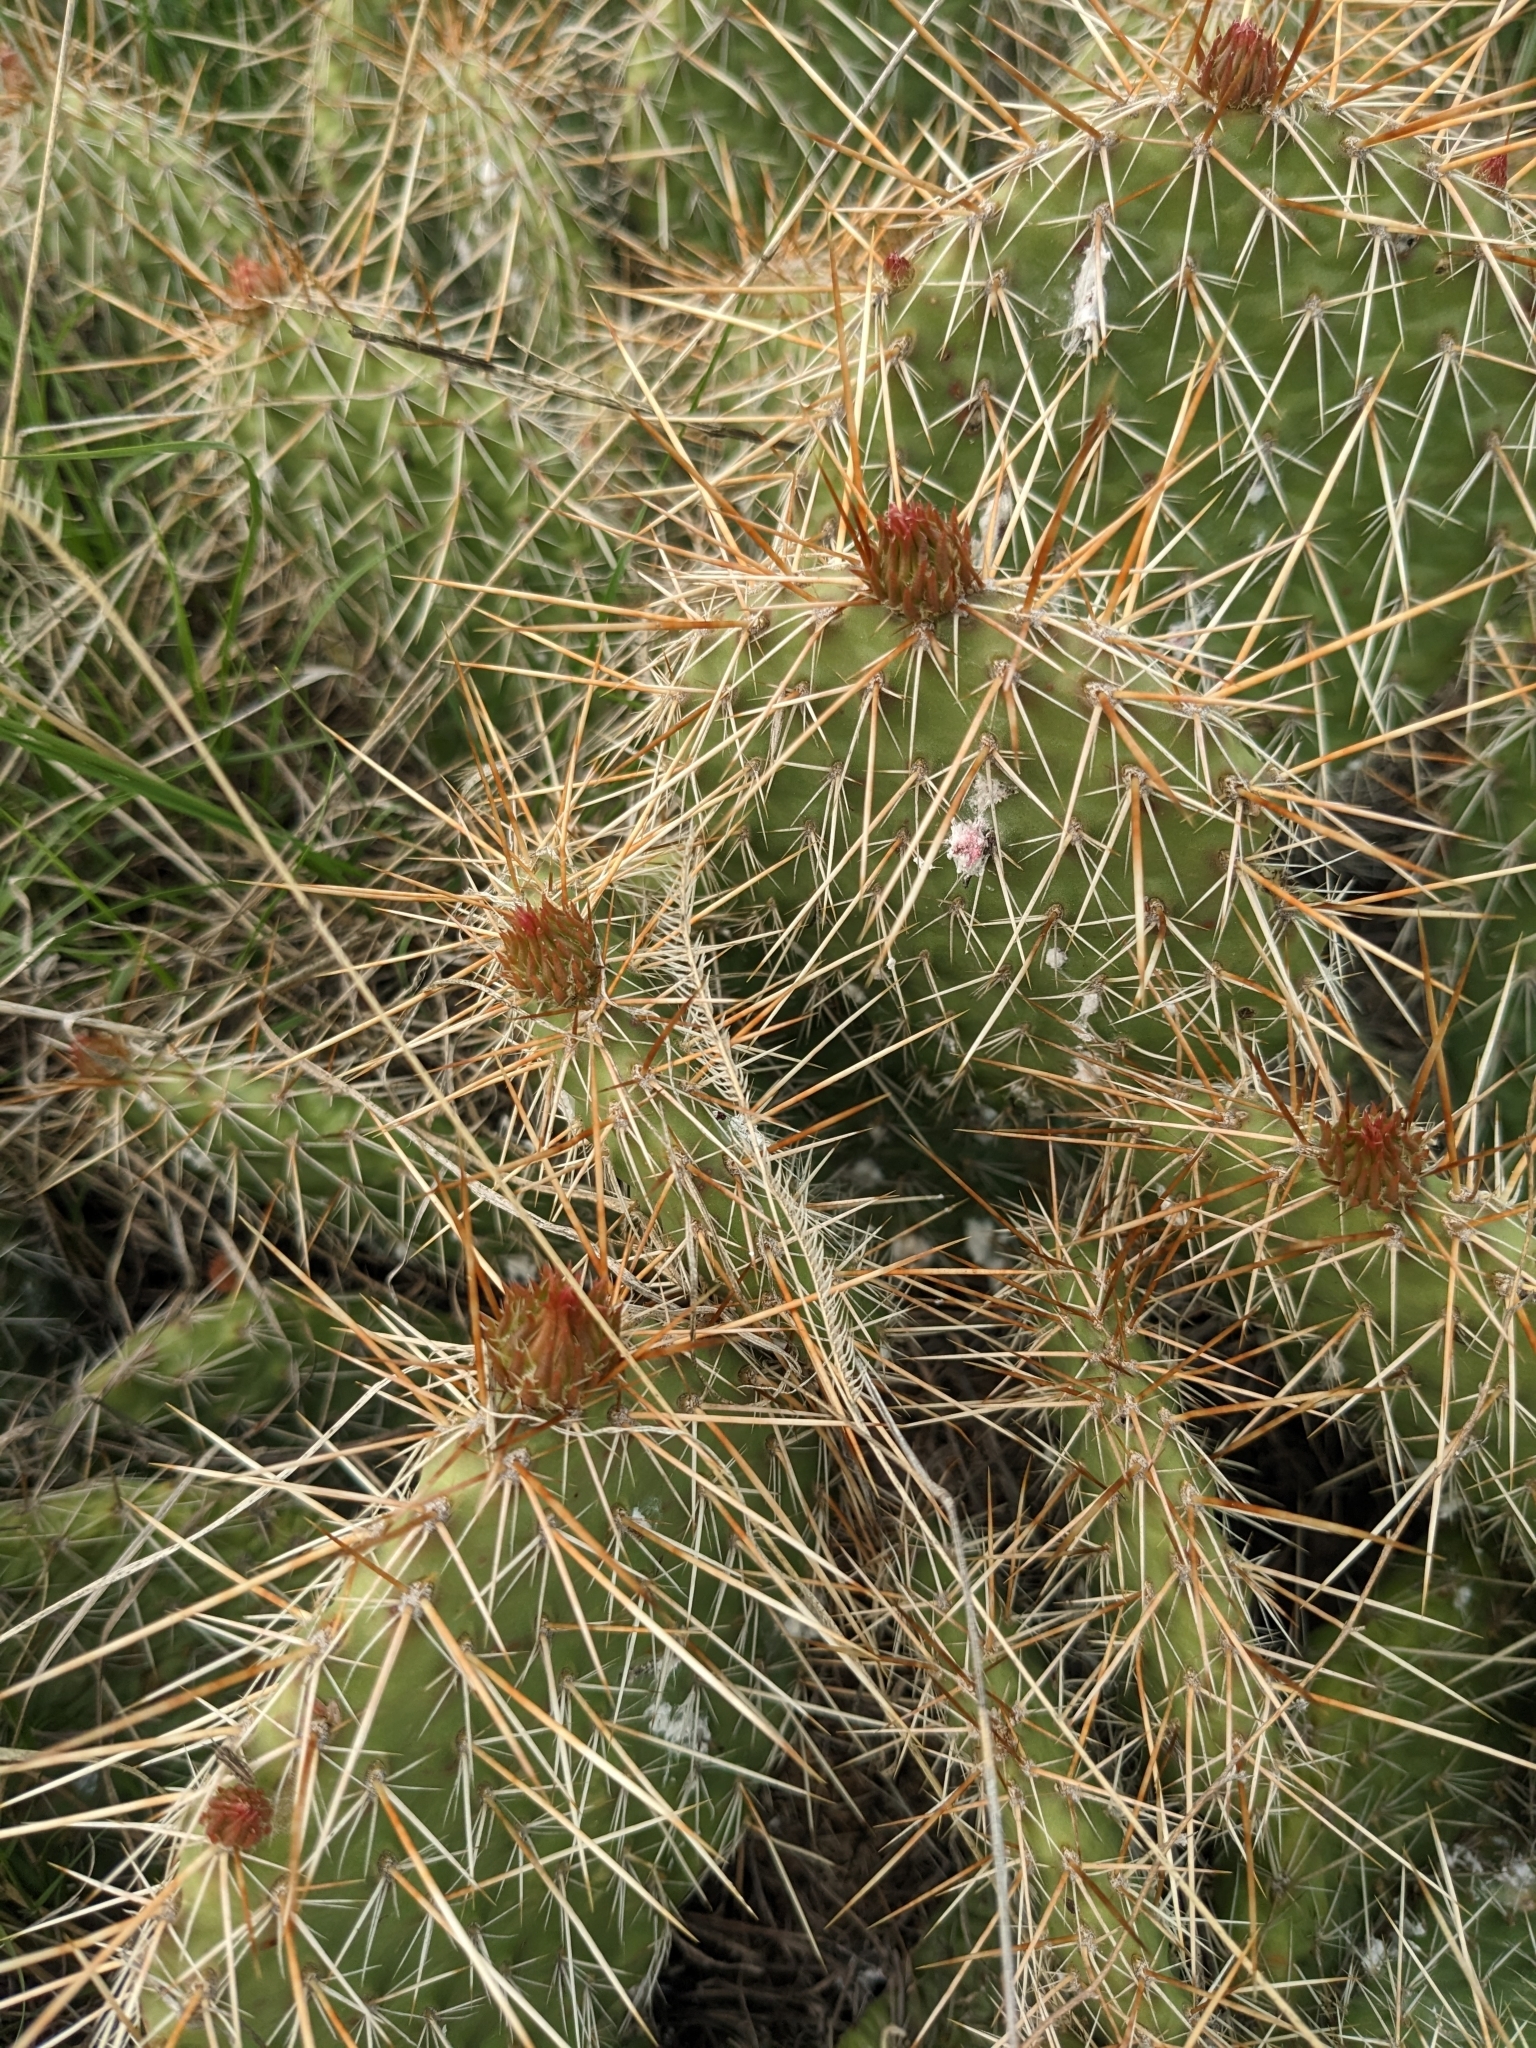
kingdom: Plantae
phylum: Tracheophyta
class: Magnoliopsida
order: Caryophyllales
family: Cactaceae
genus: Opuntia
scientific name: Opuntia polyacantha
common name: Plains prickly-pear
